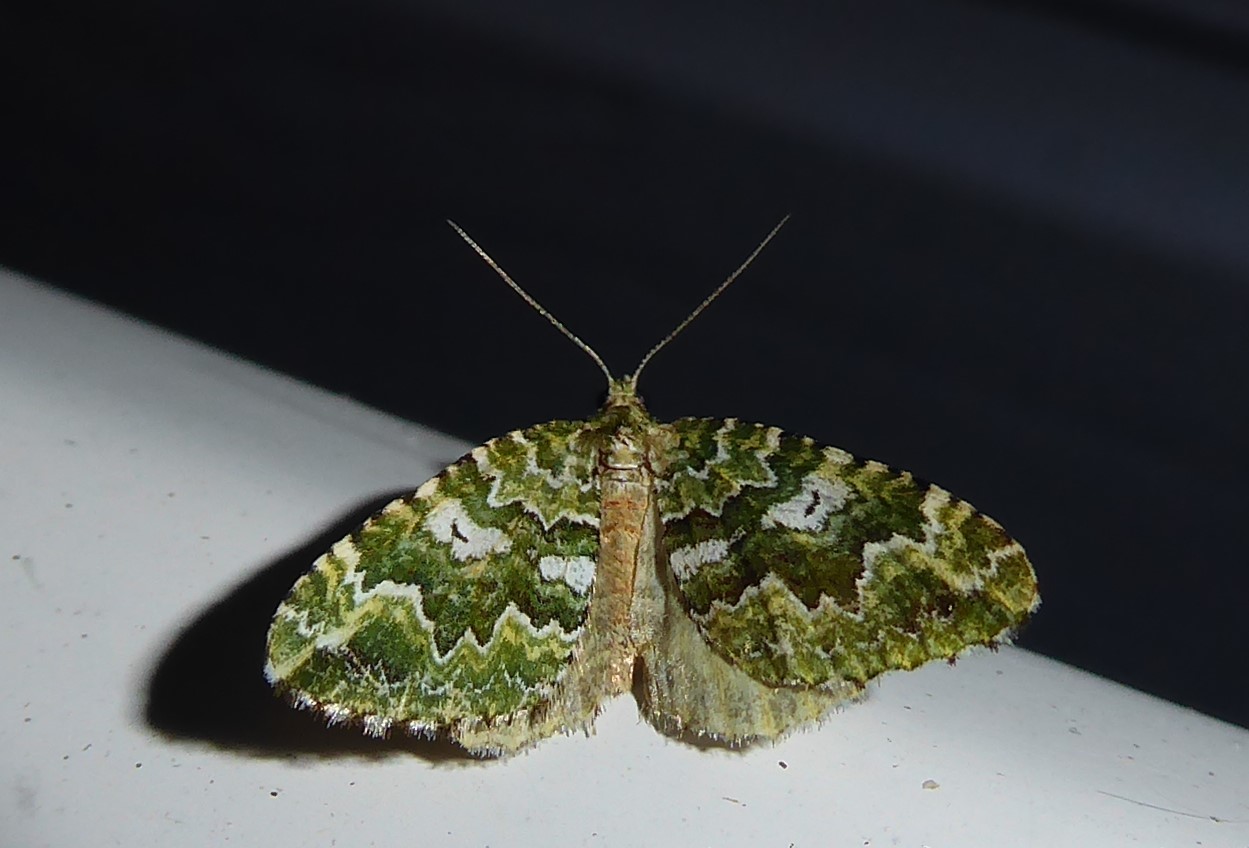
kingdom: Animalia
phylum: Arthropoda
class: Insecta
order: Lepidoptera
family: Geometridae
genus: Asaphodes
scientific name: Asaphodes beata
